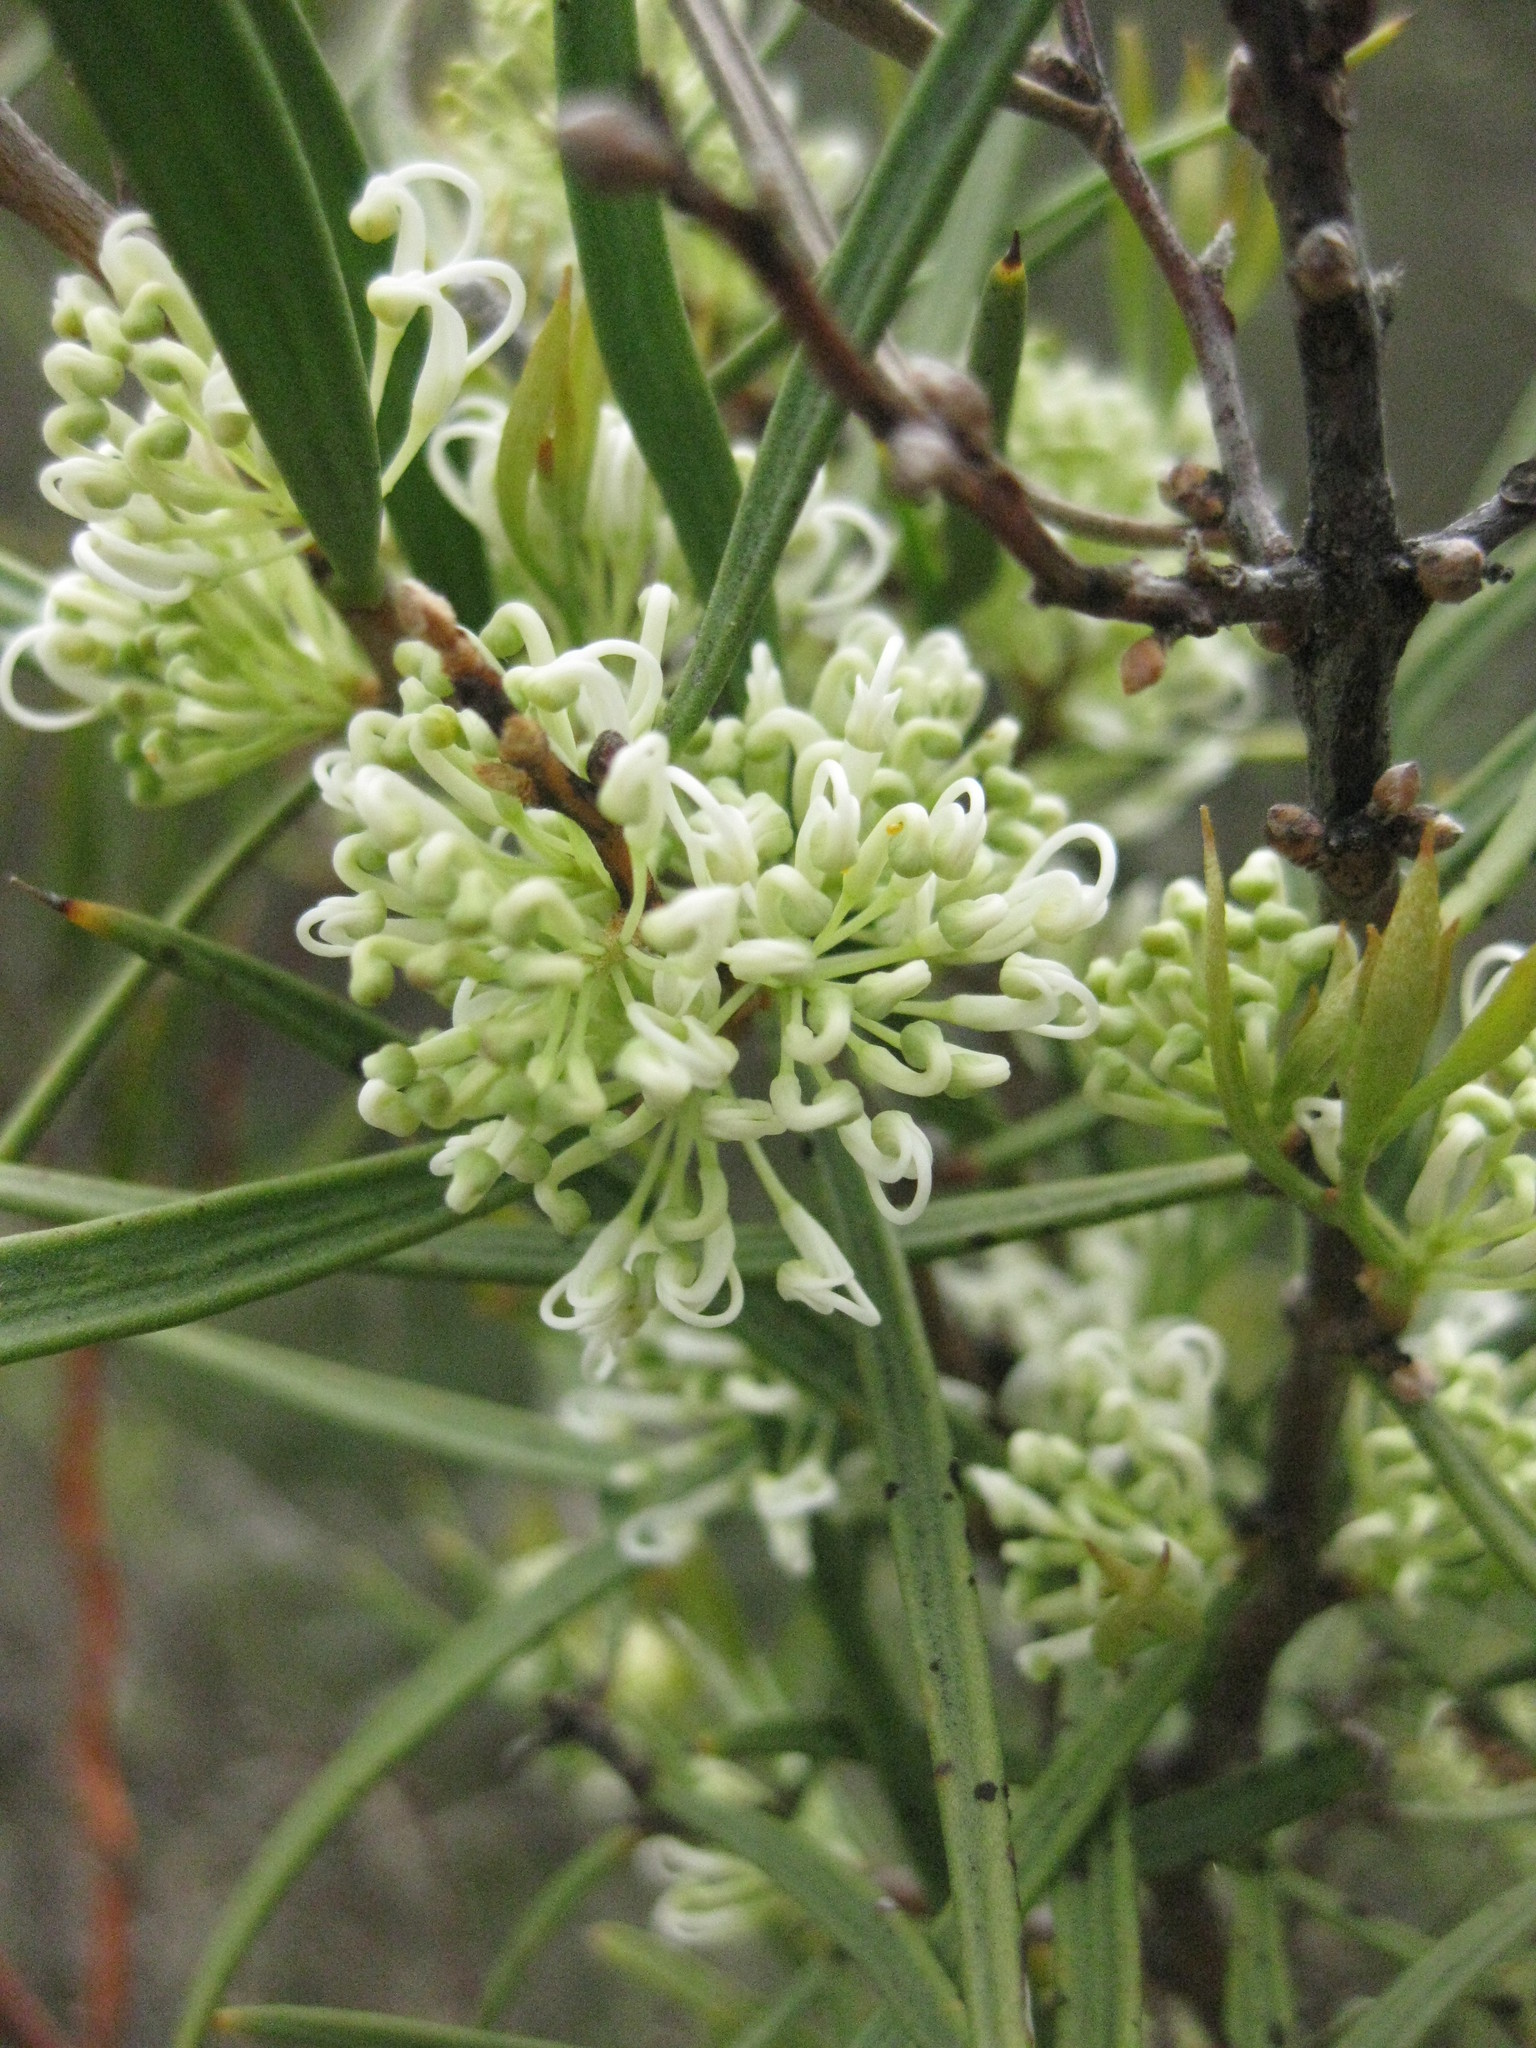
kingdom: Plantae
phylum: Tracheophyta
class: Magnoliopsida
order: Proteales
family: Proteaceae
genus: Hakea
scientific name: Hakea eriantha
